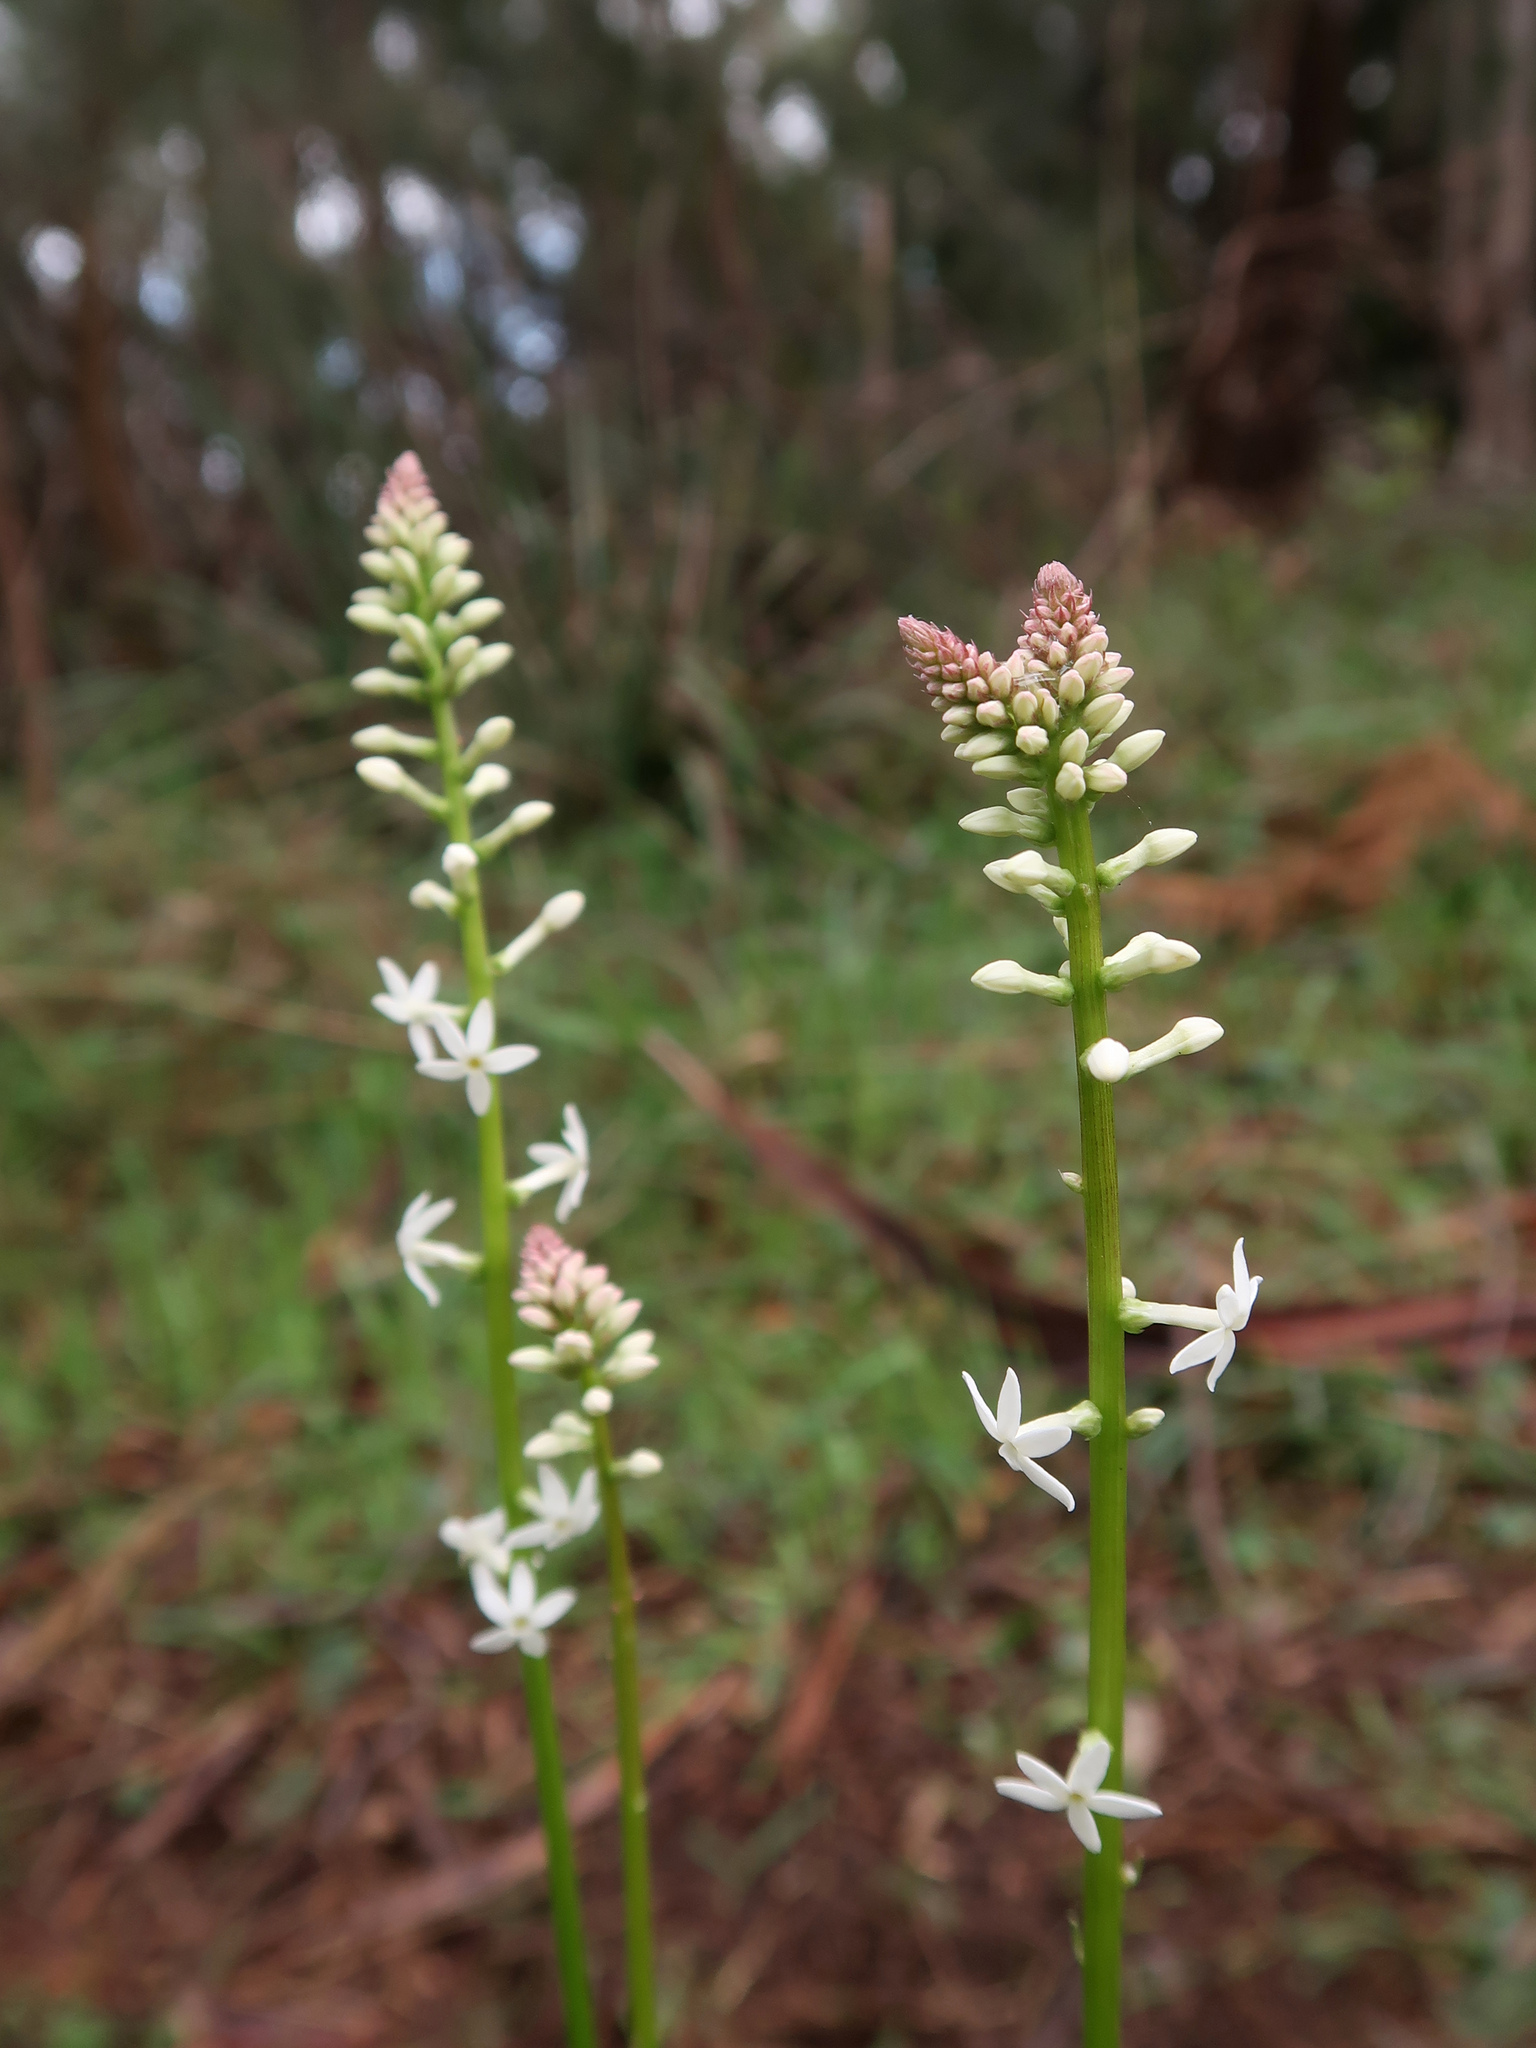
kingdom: Plantae
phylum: Tracheophyta
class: Magnoliopsida
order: Celastrales
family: Celastraceae
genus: Stackhousia
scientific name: Stackhousia monogyna
